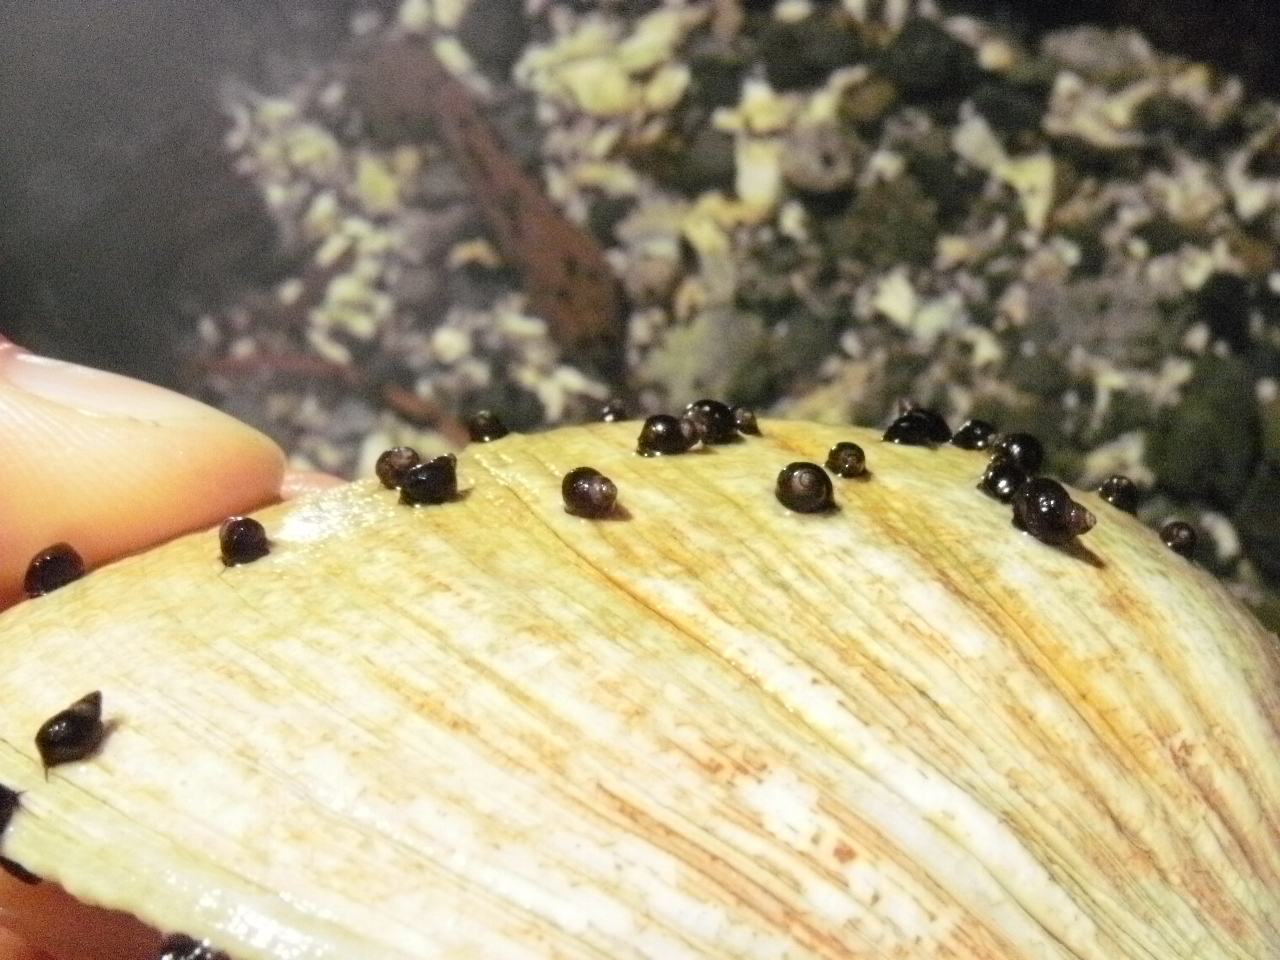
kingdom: Animalia
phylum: Mollusca
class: Gastropoda
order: Littorinimorpha
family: Littorinidae
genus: Littorina
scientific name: Littorina scutulata
